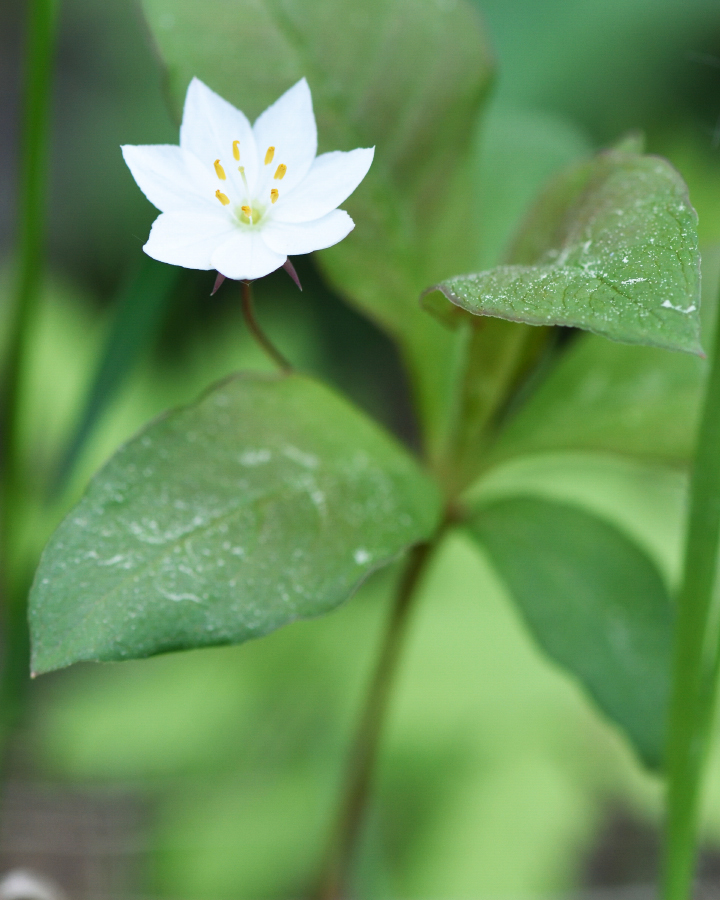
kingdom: Plantae
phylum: Tracheophyta
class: Magnoliopsida
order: Ericales
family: Primulaceae
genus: Lysimachia
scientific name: Lysimachia europaea
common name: Arctic starflower
